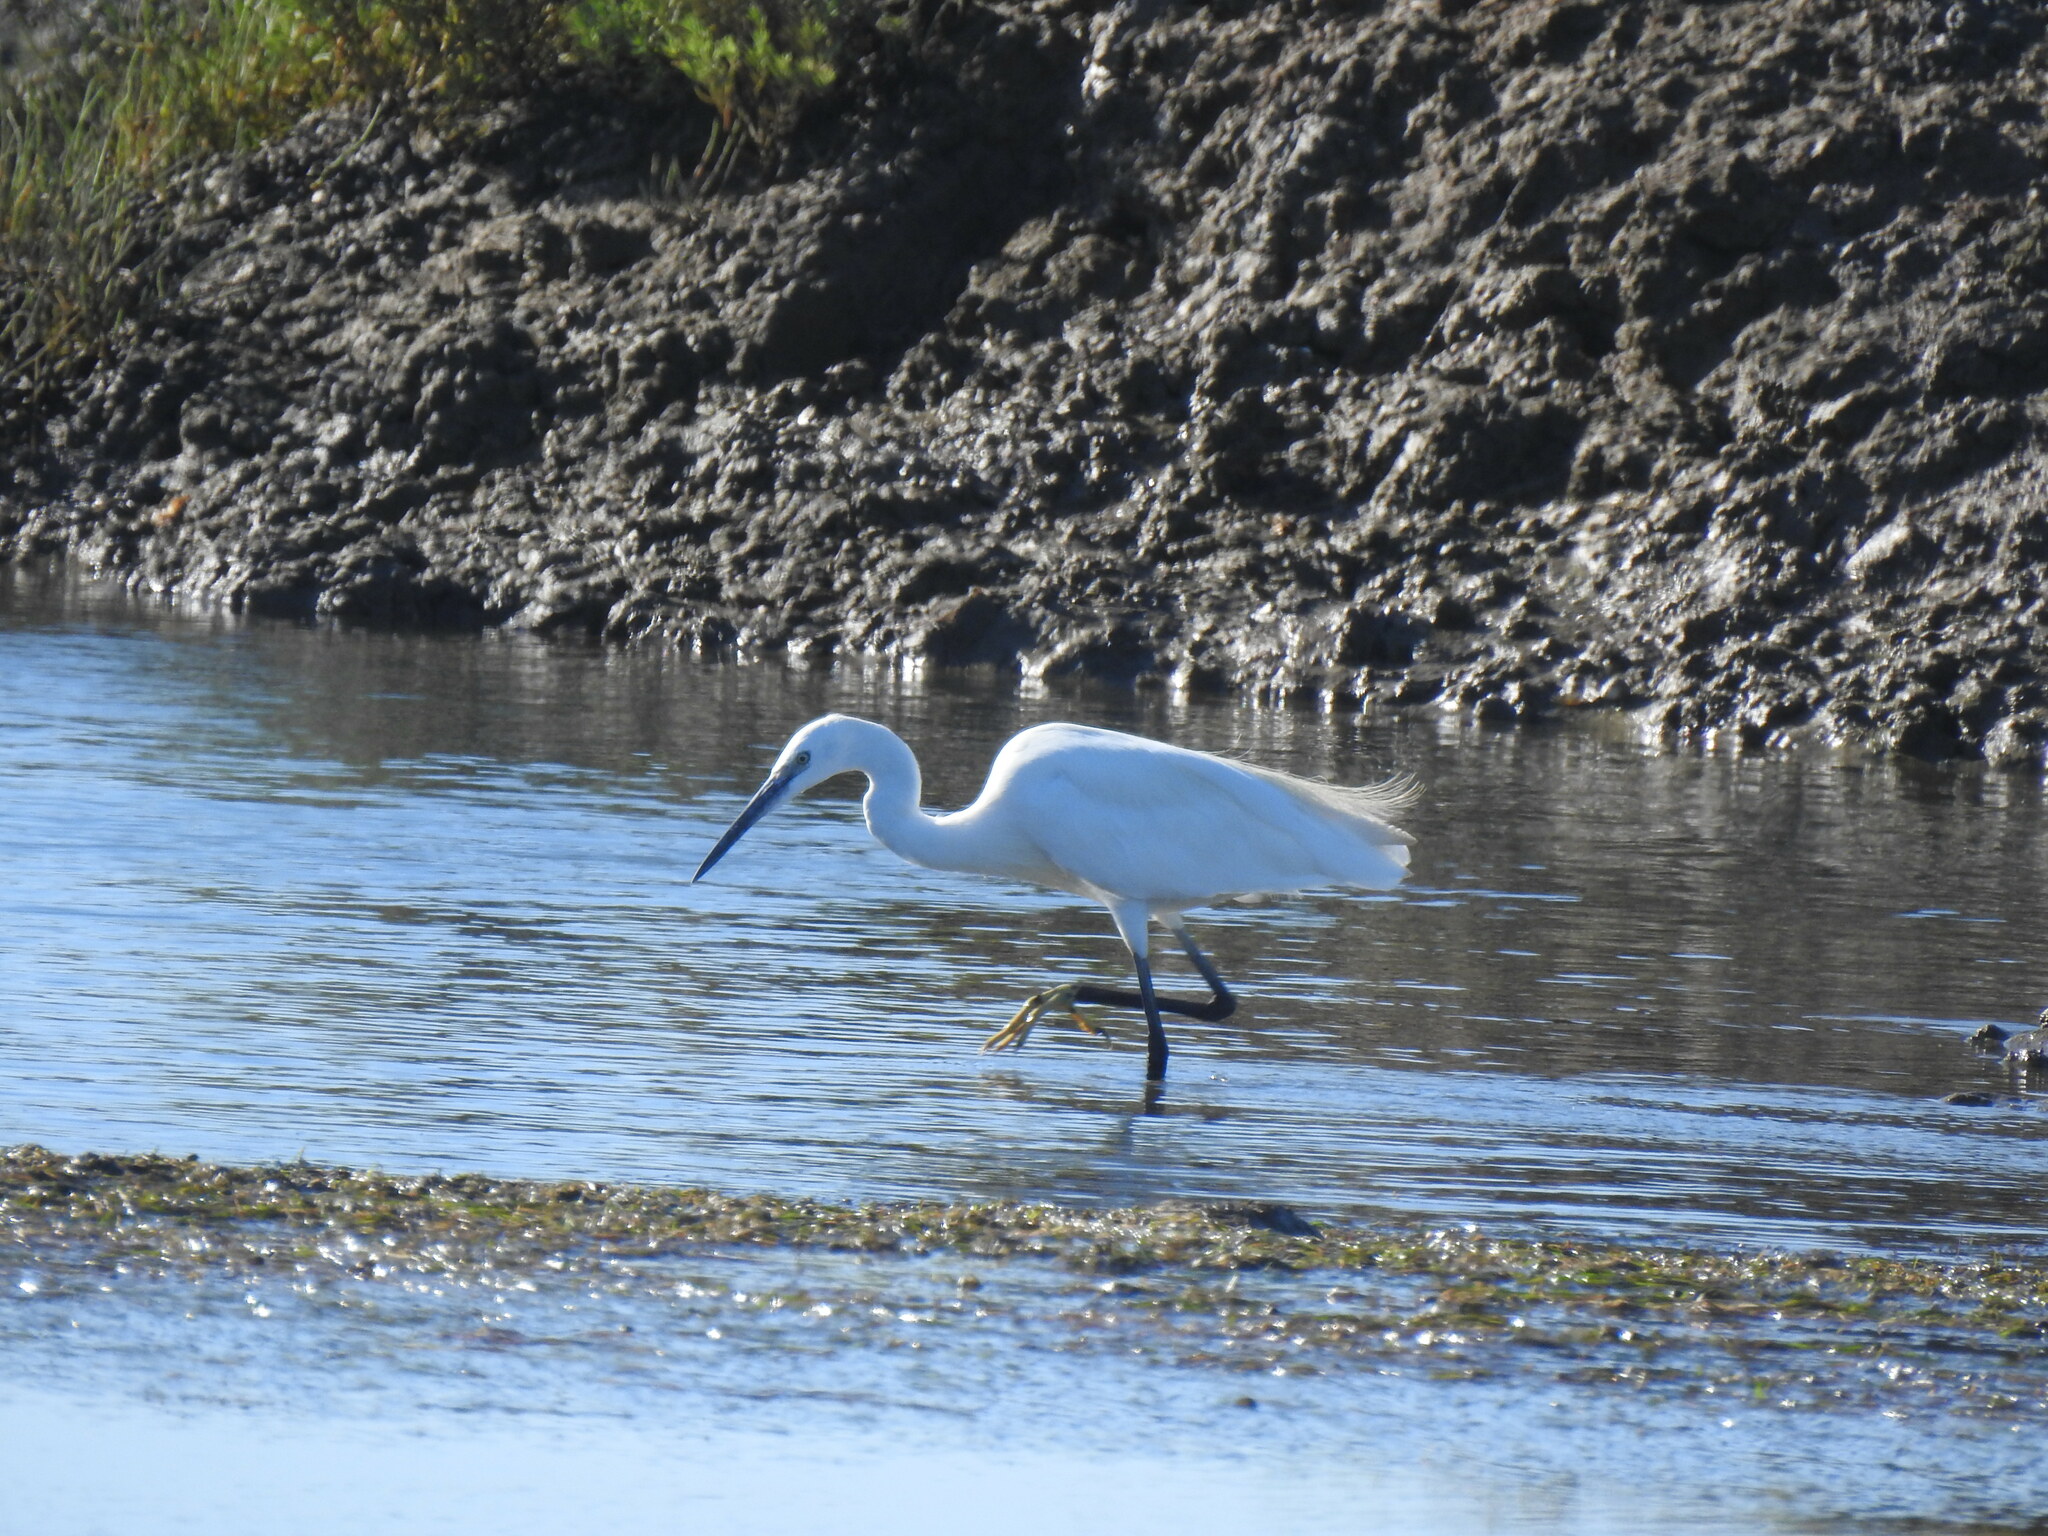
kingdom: Animalia
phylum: Chordata
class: Aves
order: Pelecaniformes
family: Ardeidae
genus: Egretta
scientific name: Egretta garzetta
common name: Little egret
